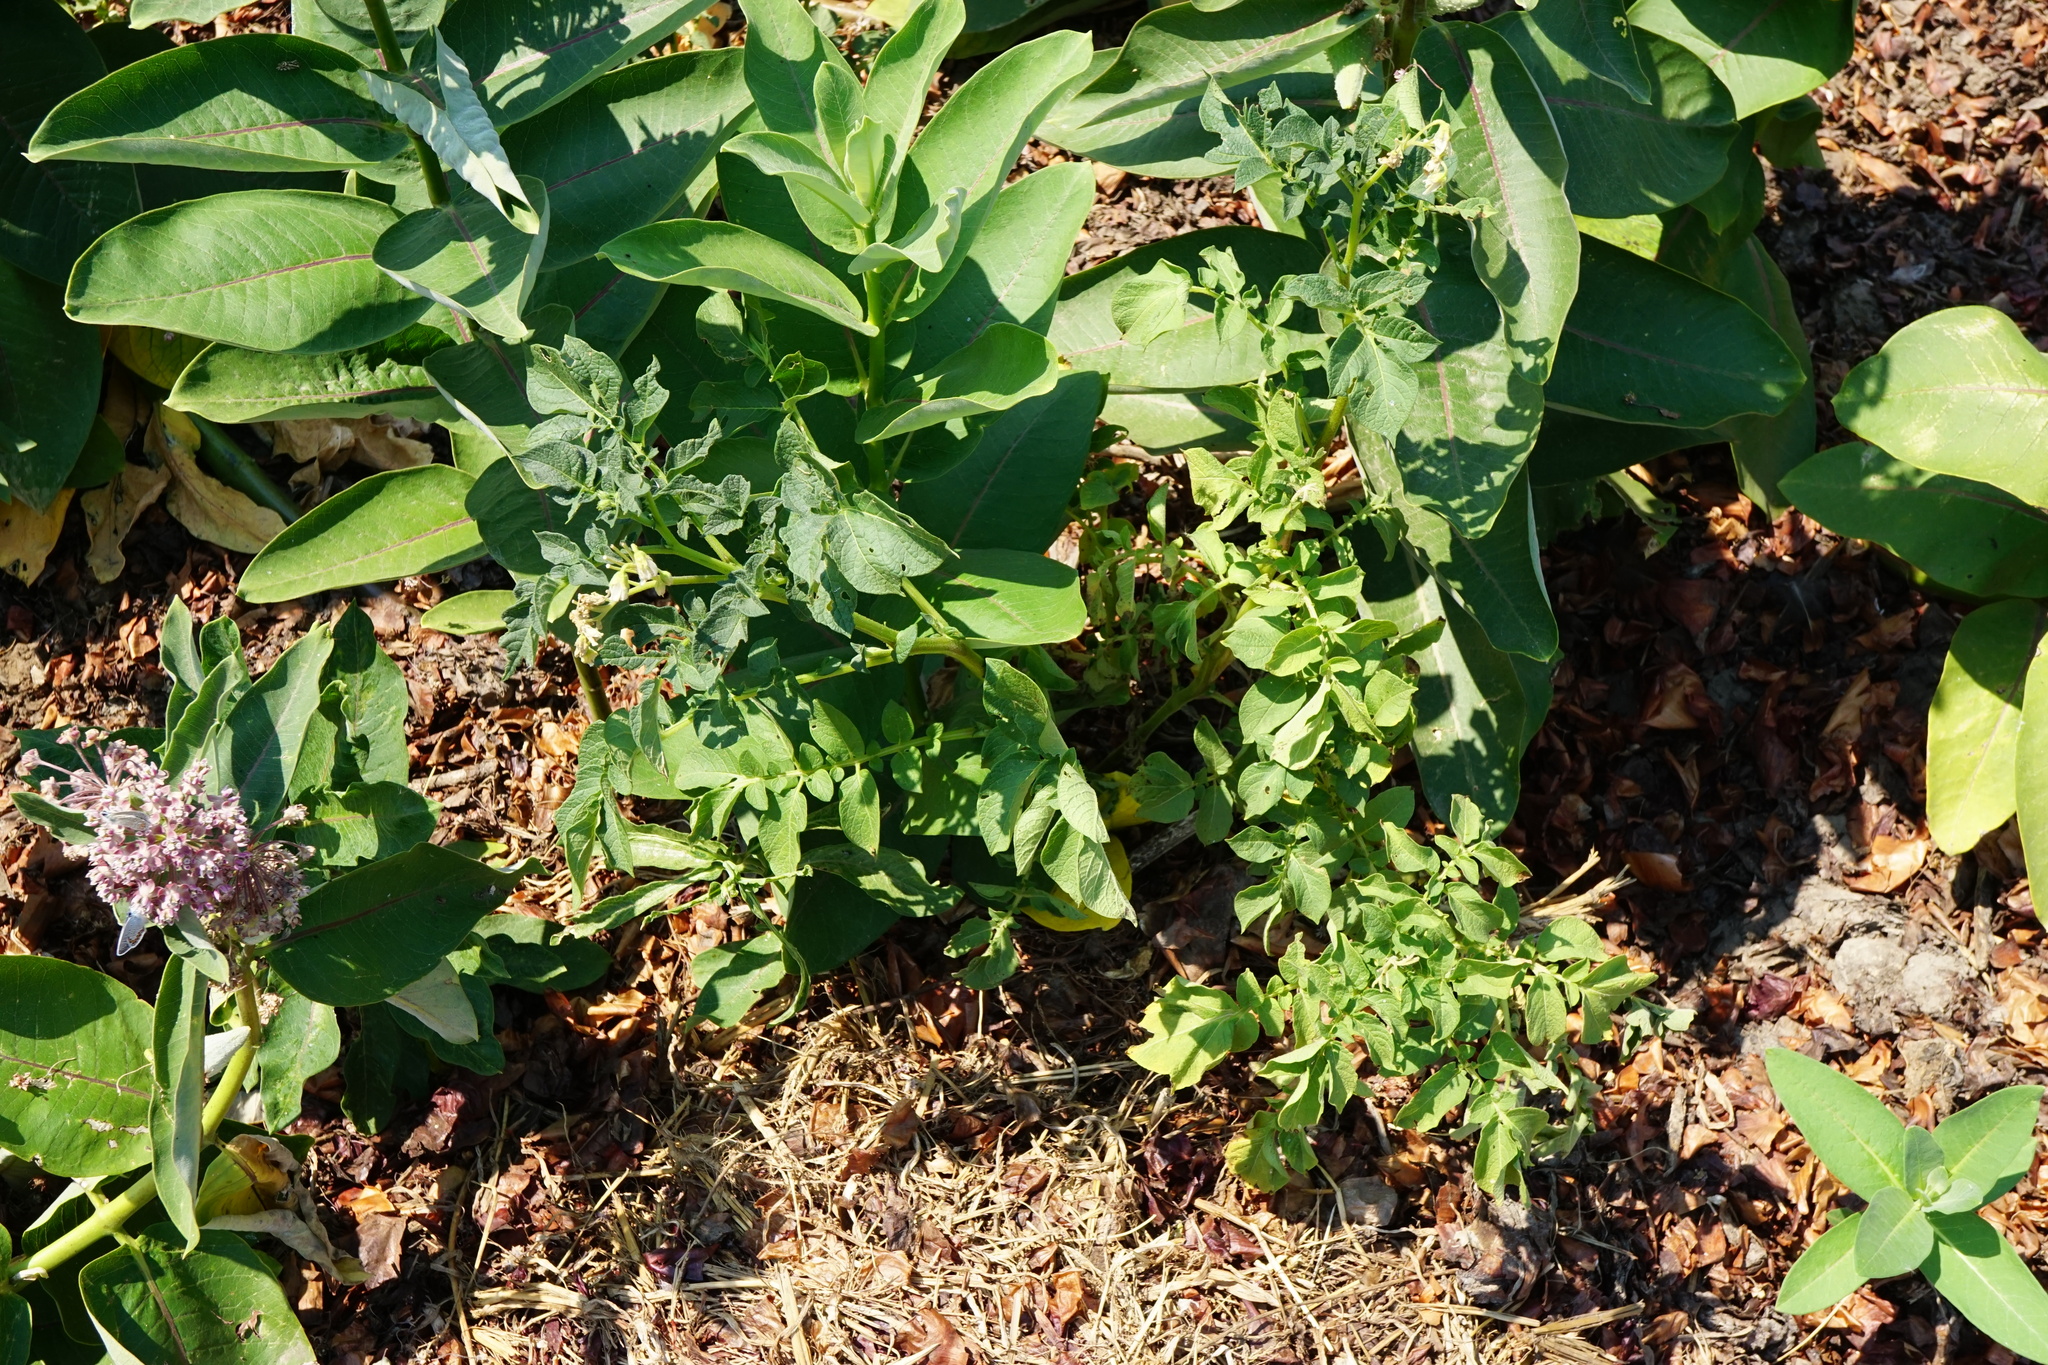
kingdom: Plantae
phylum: Tracheophyta
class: Magnoliopsida
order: Solanales
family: Solanaceae
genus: Solanum
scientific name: Solanum tuberosum
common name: Potato
